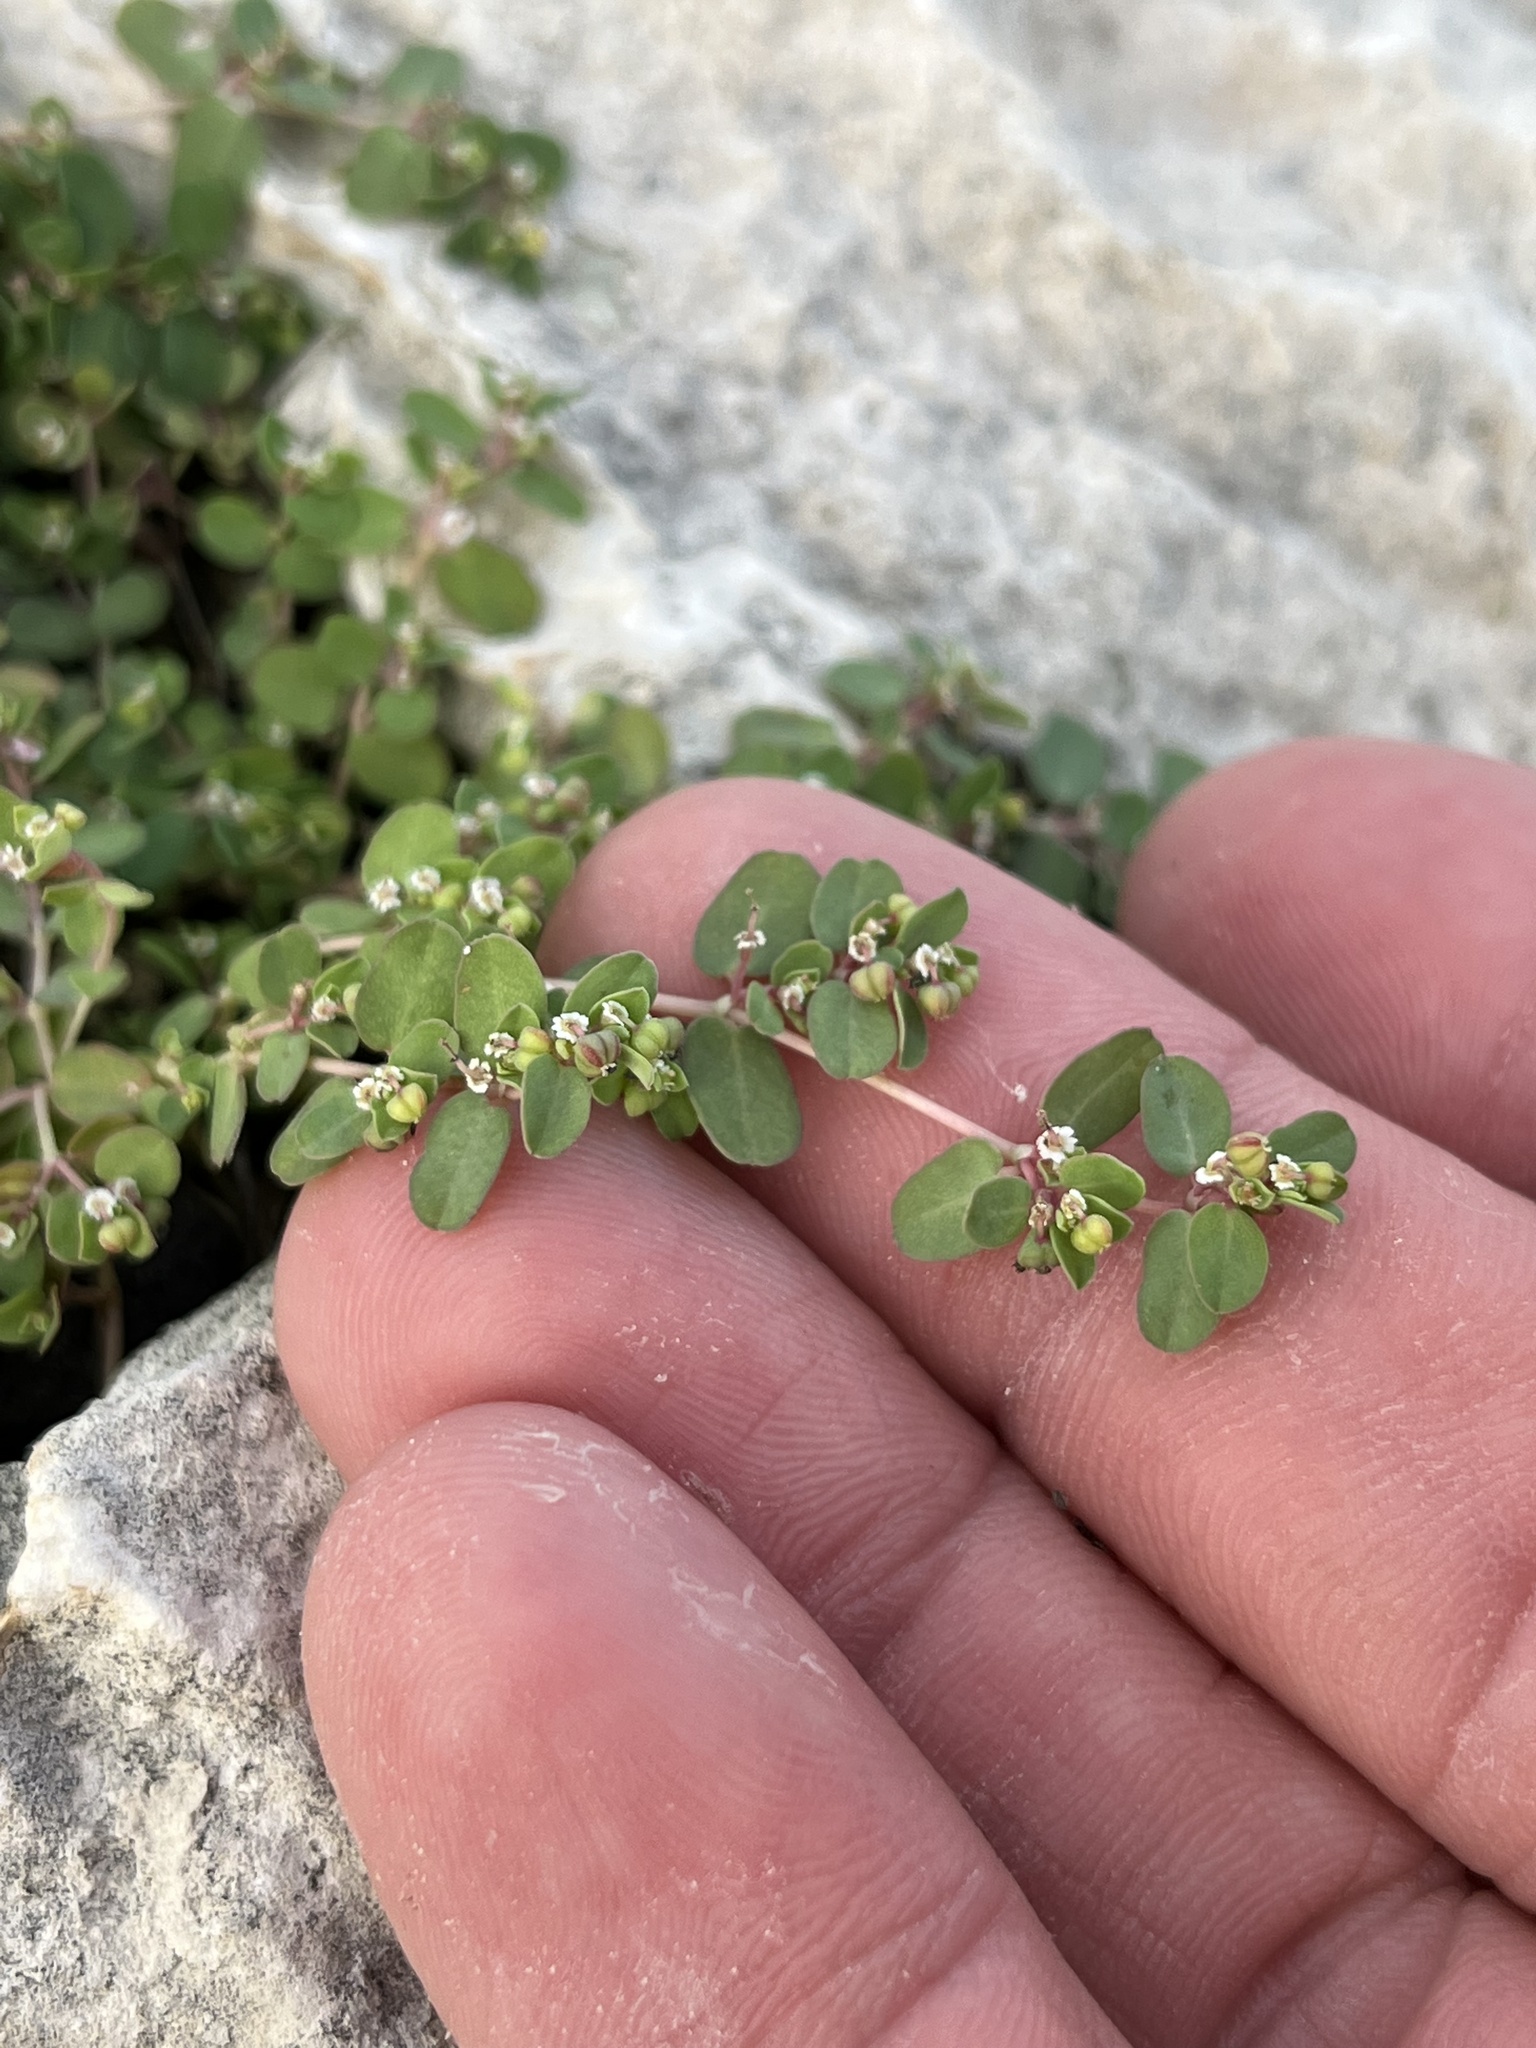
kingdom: Plantae
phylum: Tracheophyta
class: Magnoliopsida
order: Malpighiales
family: Euphorbiaceae
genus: Euphorbia
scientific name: Euphorbia serpens
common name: Matted sandmat
